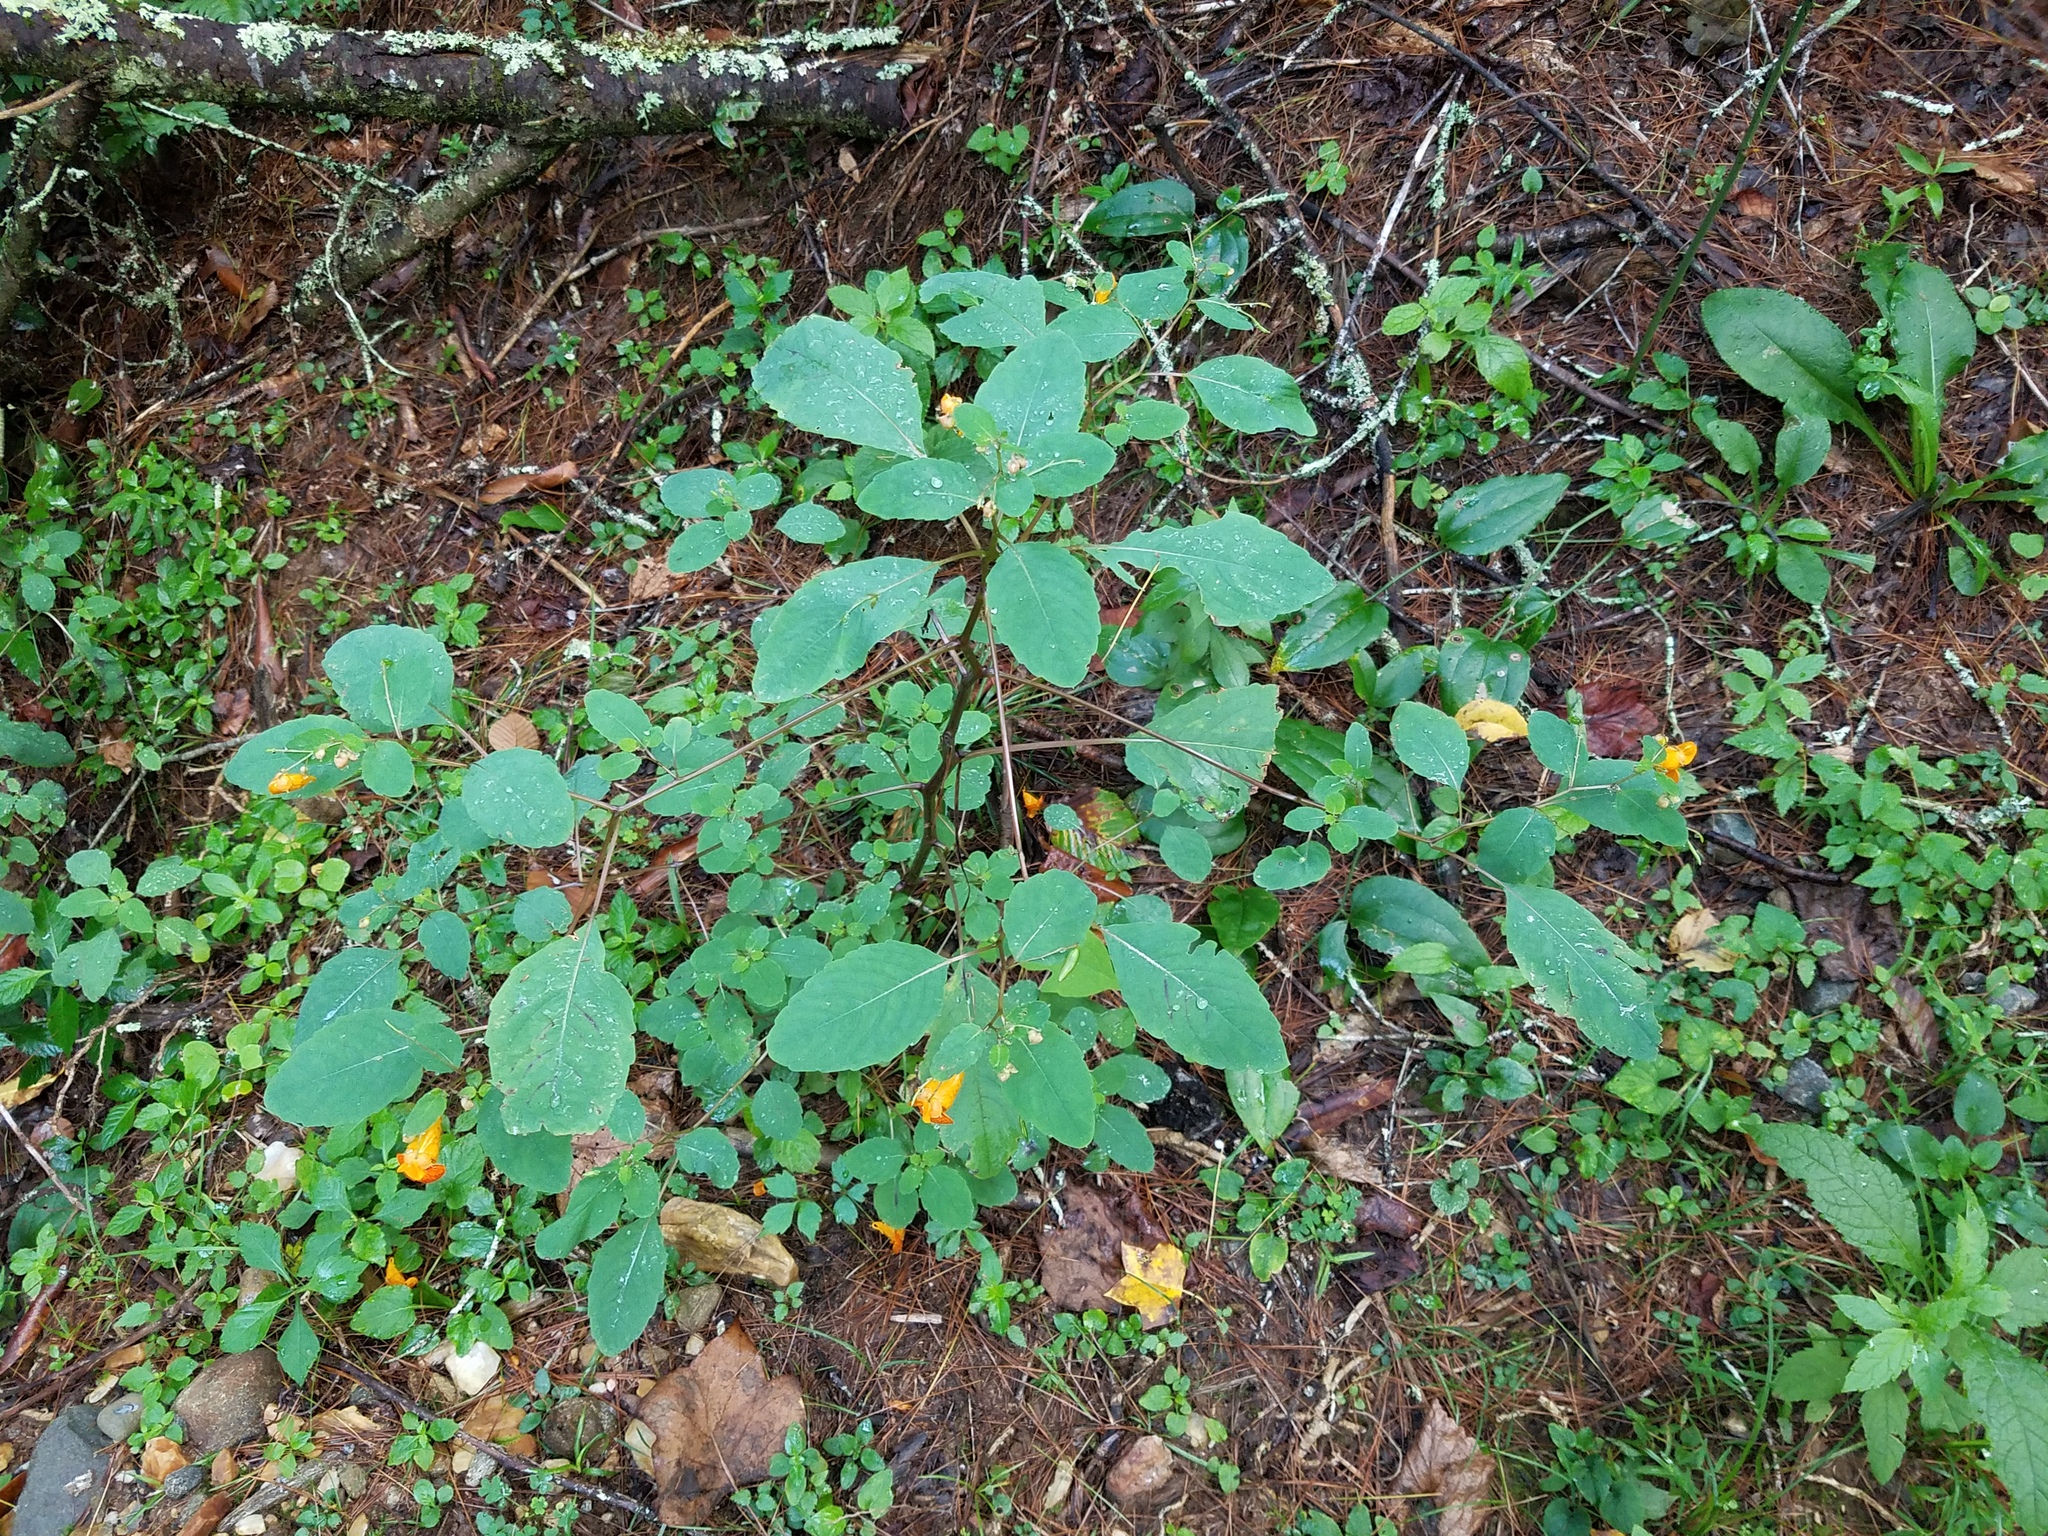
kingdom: Plantae
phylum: Tracheophyta
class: Magnoliopsida
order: Ericales
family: Balsaminaceae
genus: Impatiens
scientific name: Impatiens capensis
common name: Orange balsam
